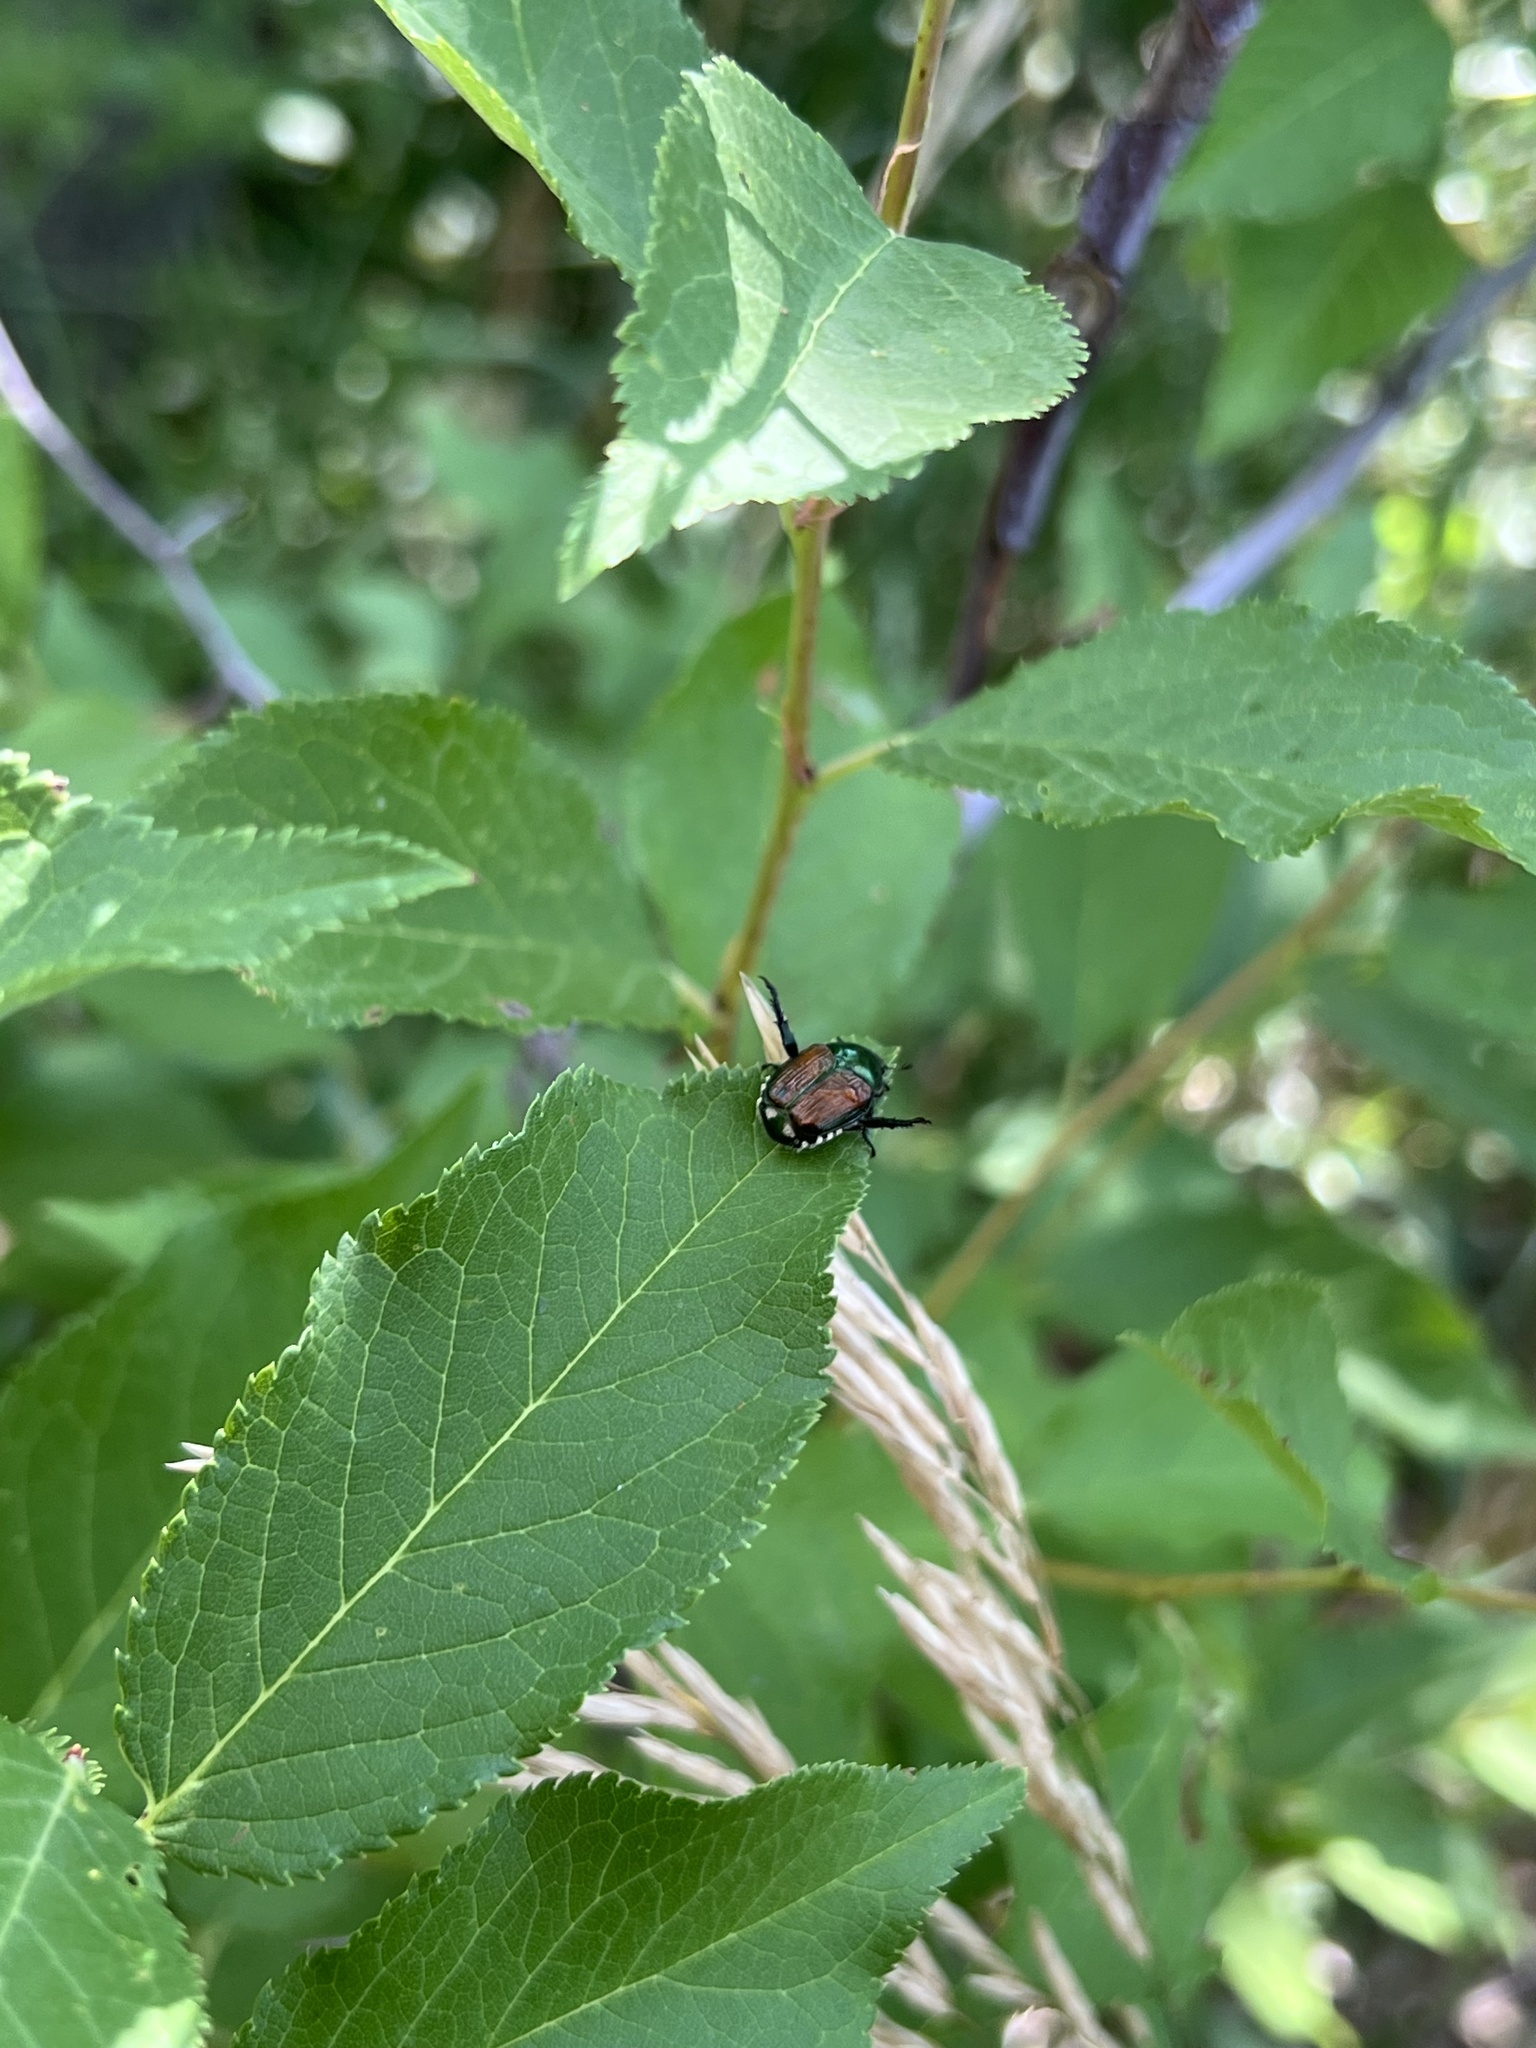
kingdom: Animalia
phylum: Arthropoda
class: Insecta
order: Coleoptera
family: Scarabaeidae
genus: Popillia
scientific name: Popillia japonica
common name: Japanese beetle
